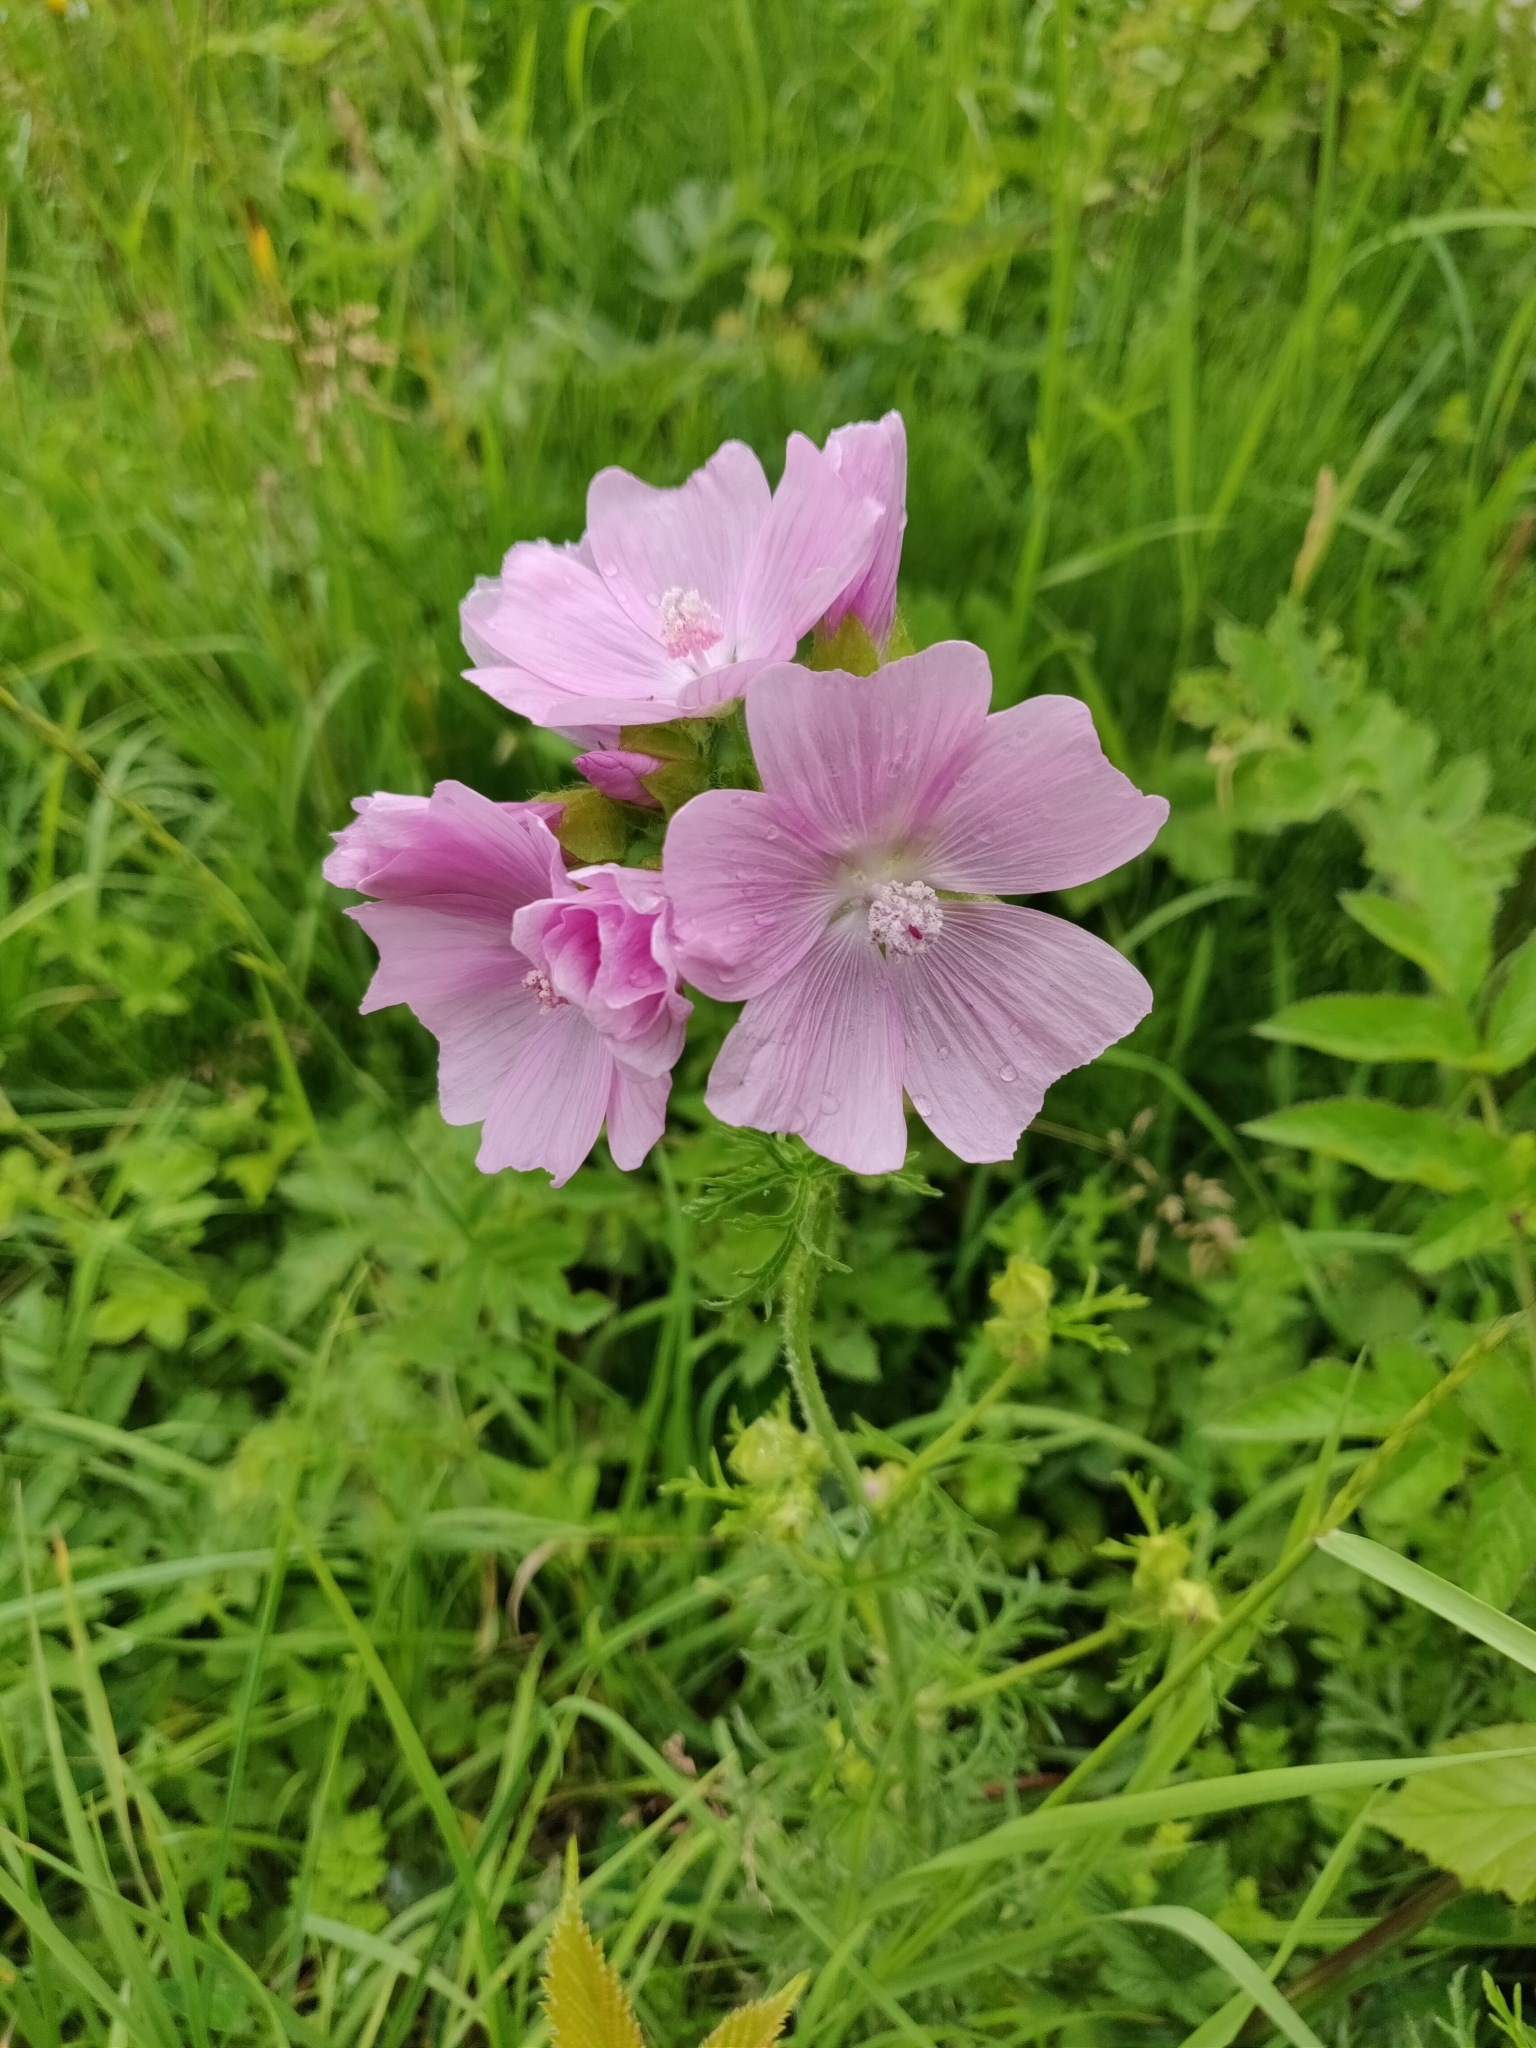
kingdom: Plantae
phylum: Tracheophyta
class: Magnoliopsida
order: Malvales
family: Malvaceae
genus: Malva
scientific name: Malva moschata
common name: Musk mallow
